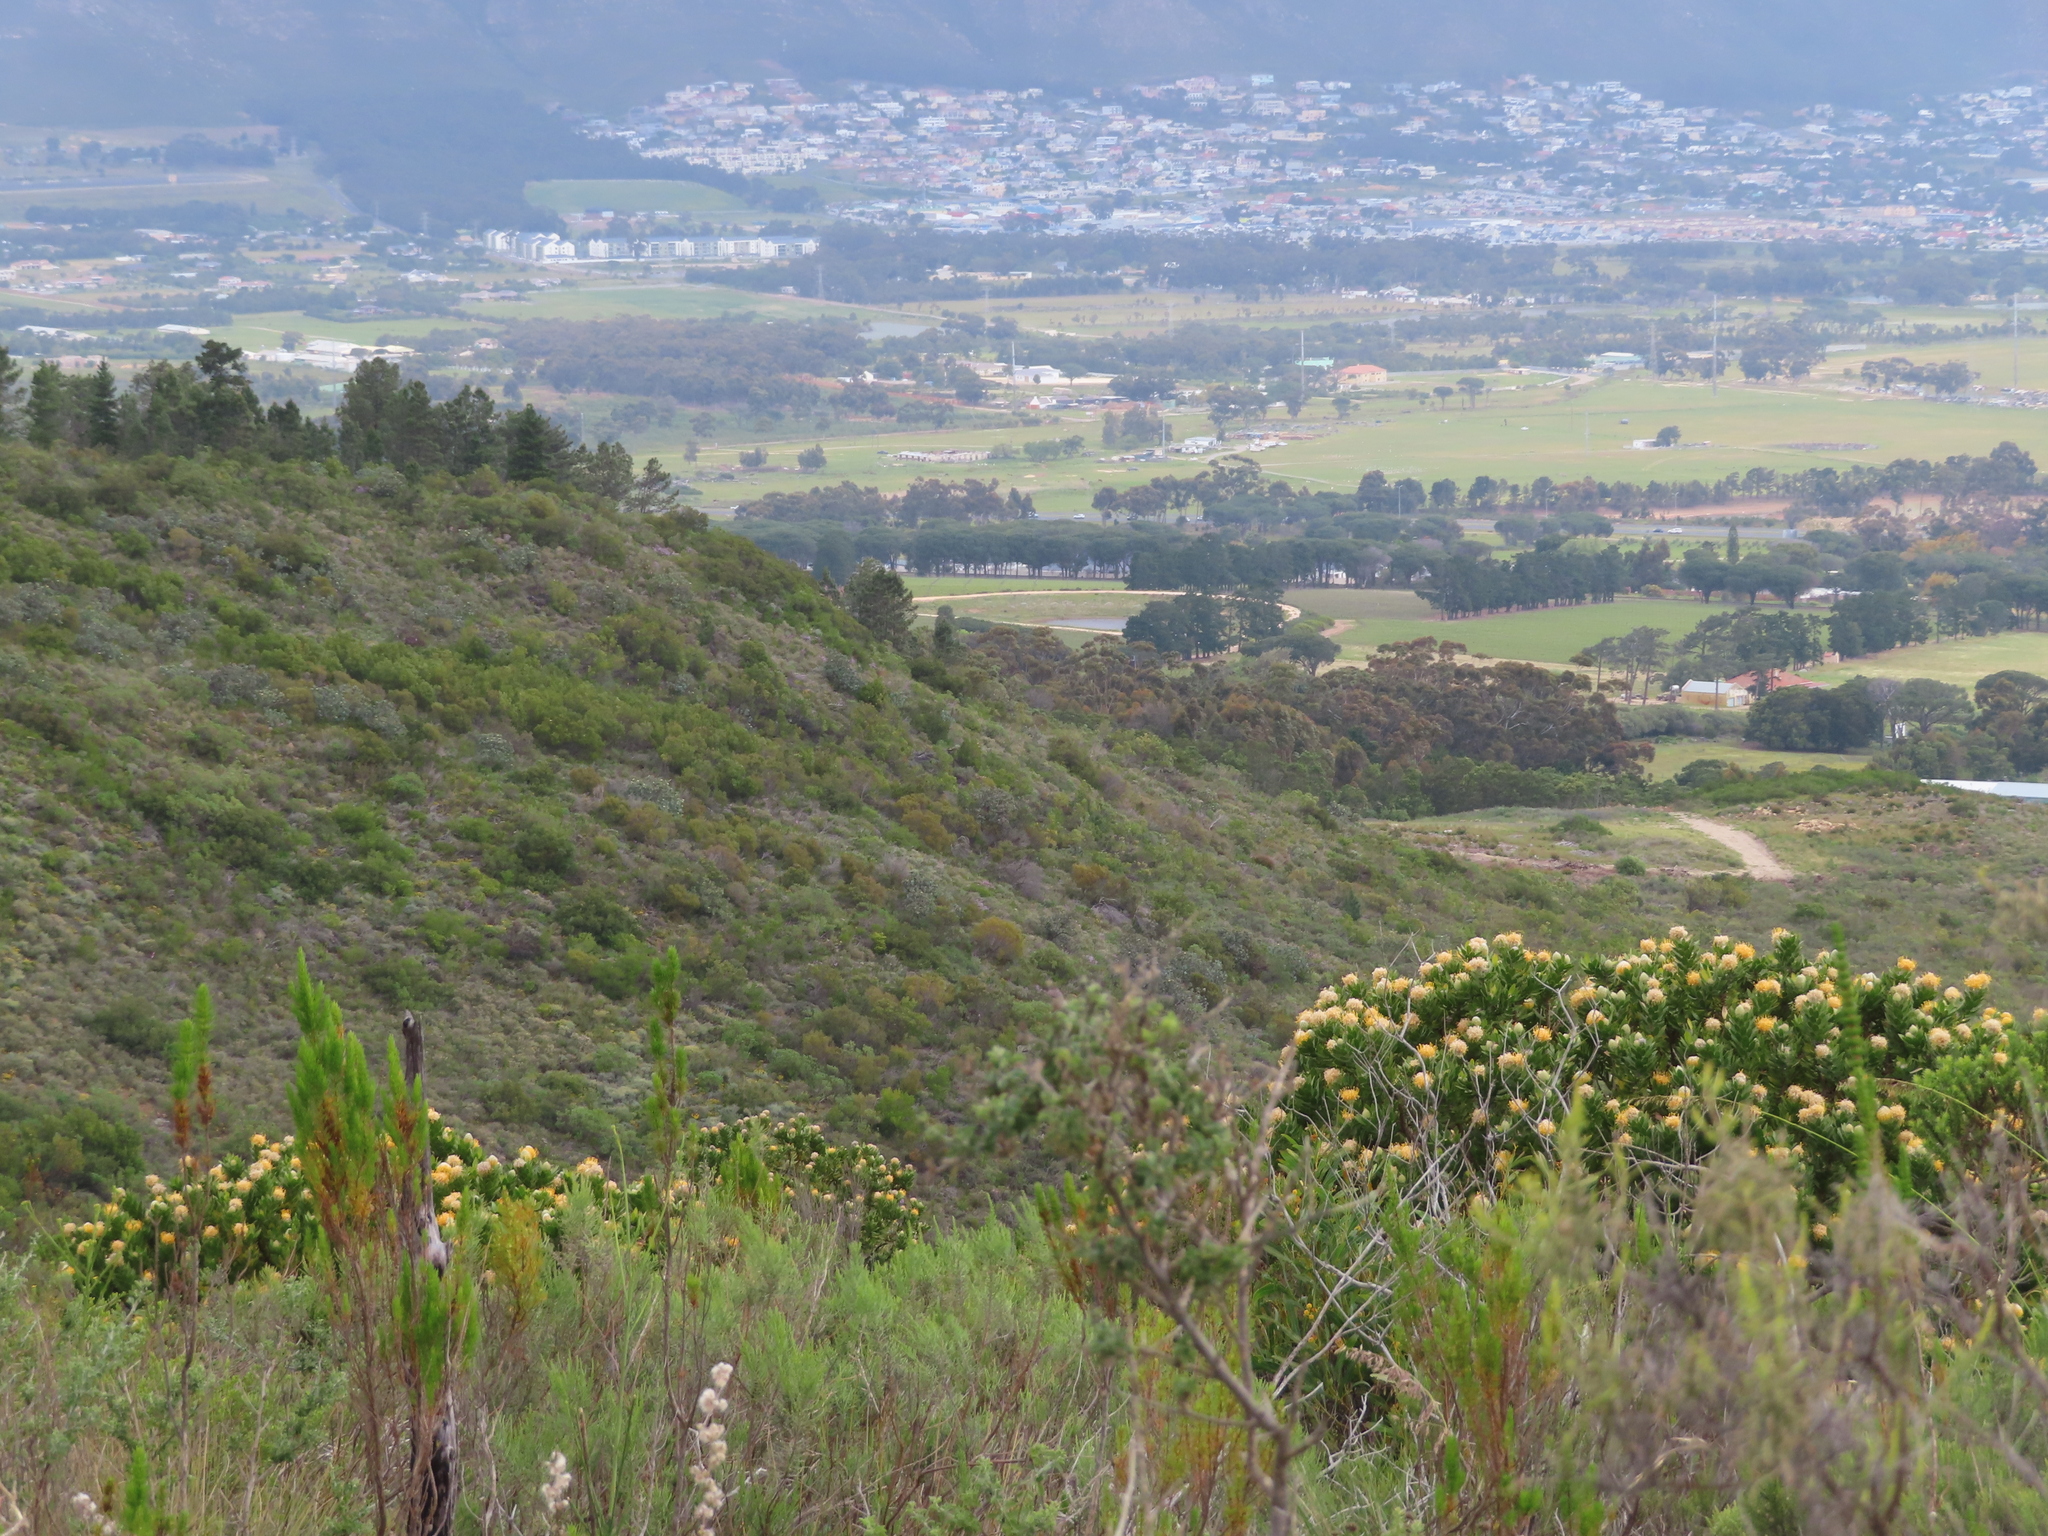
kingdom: Plantae
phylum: Tracheophyta
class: Magnoliopsida
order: Proteales
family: Proteaceae
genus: Leucospermum
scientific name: Leucospermum conocarpodendron
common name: Tree pincushion
